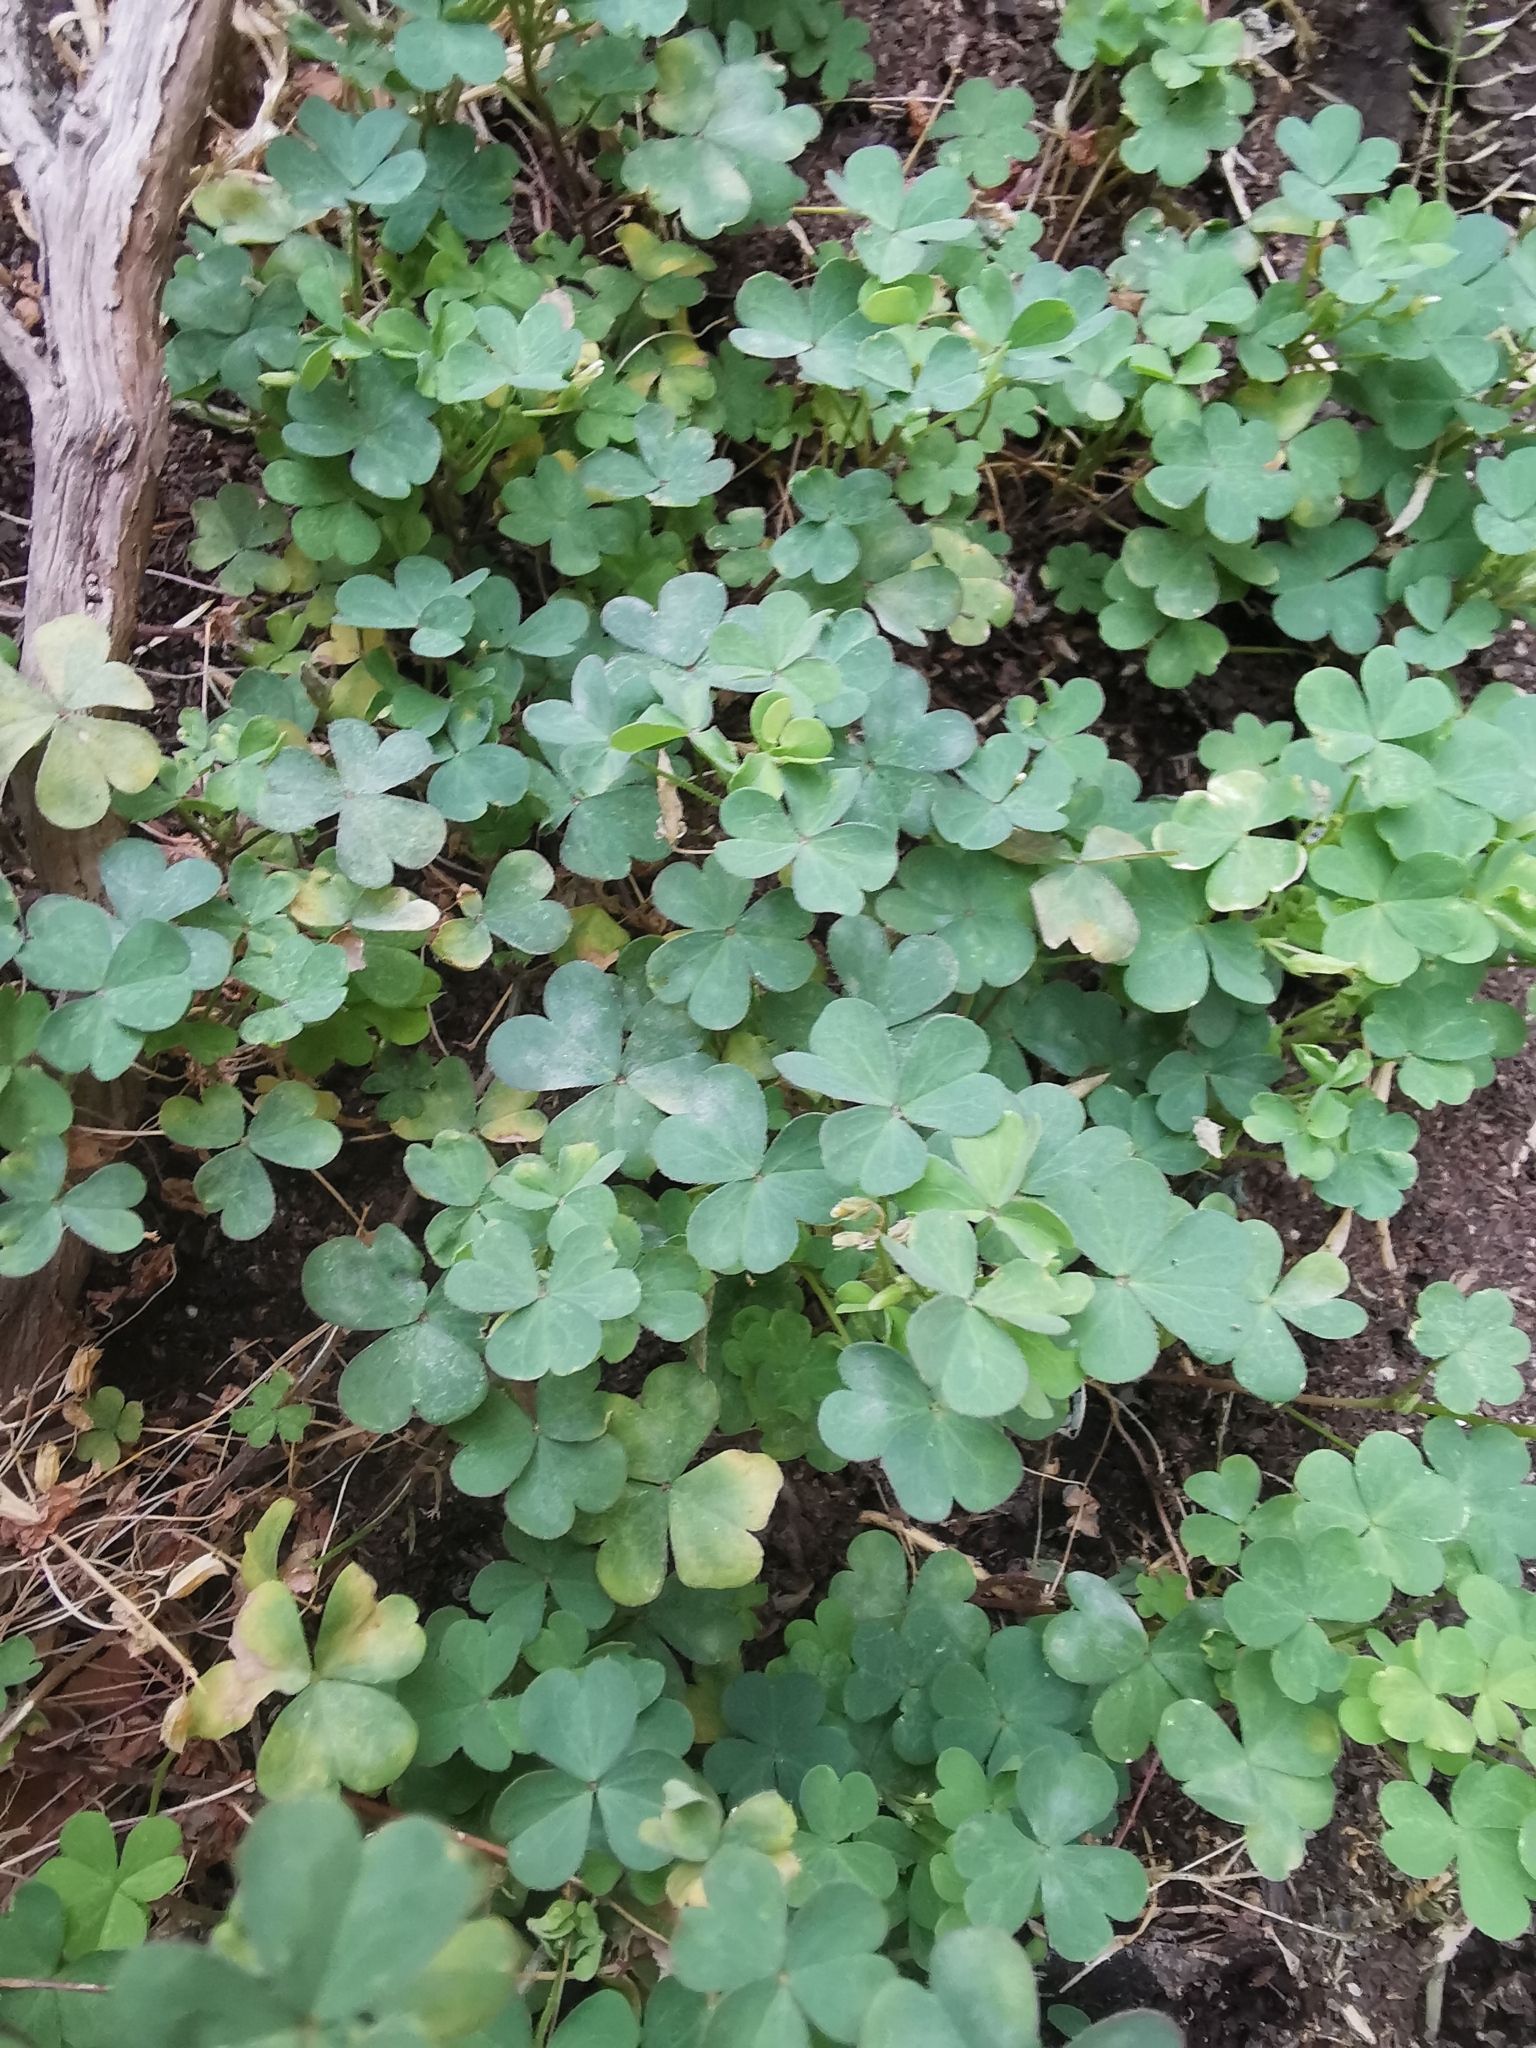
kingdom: Plantae
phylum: Tracheophyta
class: Magnoliopsida
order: Oxalidales
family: Oxalidaceae
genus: Oxalis
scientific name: Oxalis corniculata
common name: Procumbent yellow-sorrel
